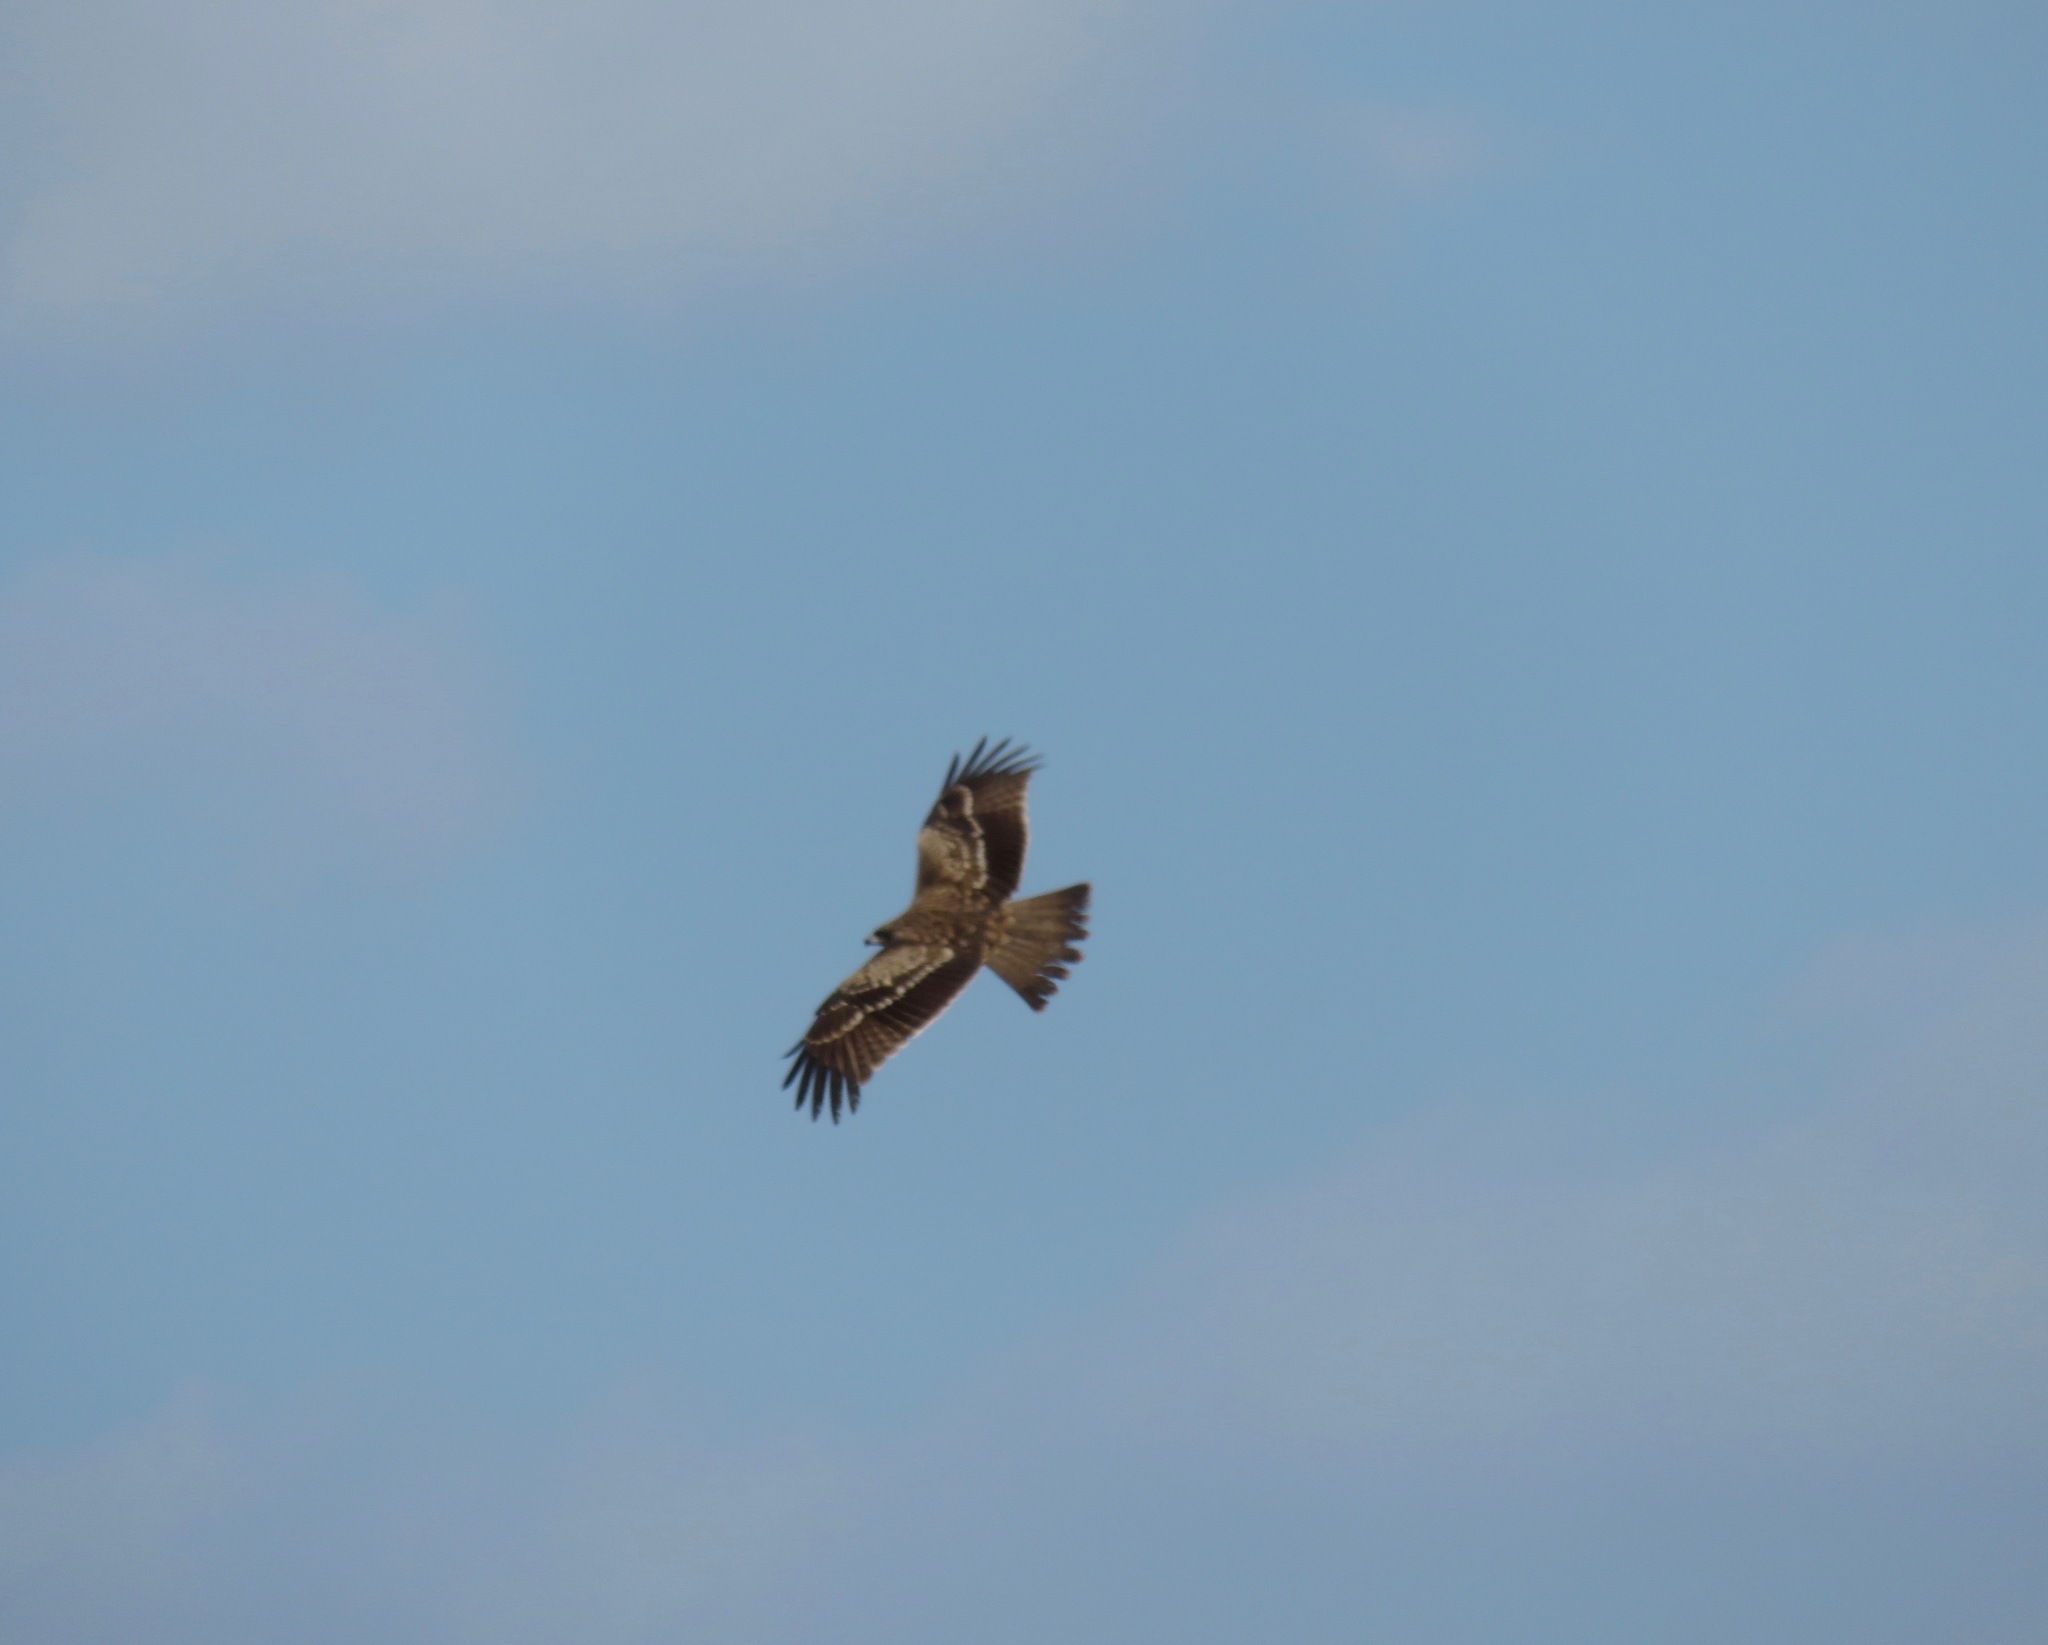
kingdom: Animalia
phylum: Chordata
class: Aves
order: Accipitriformes
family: Accipitridae
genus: Milvus
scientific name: Milvus migrans
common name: Black kite
